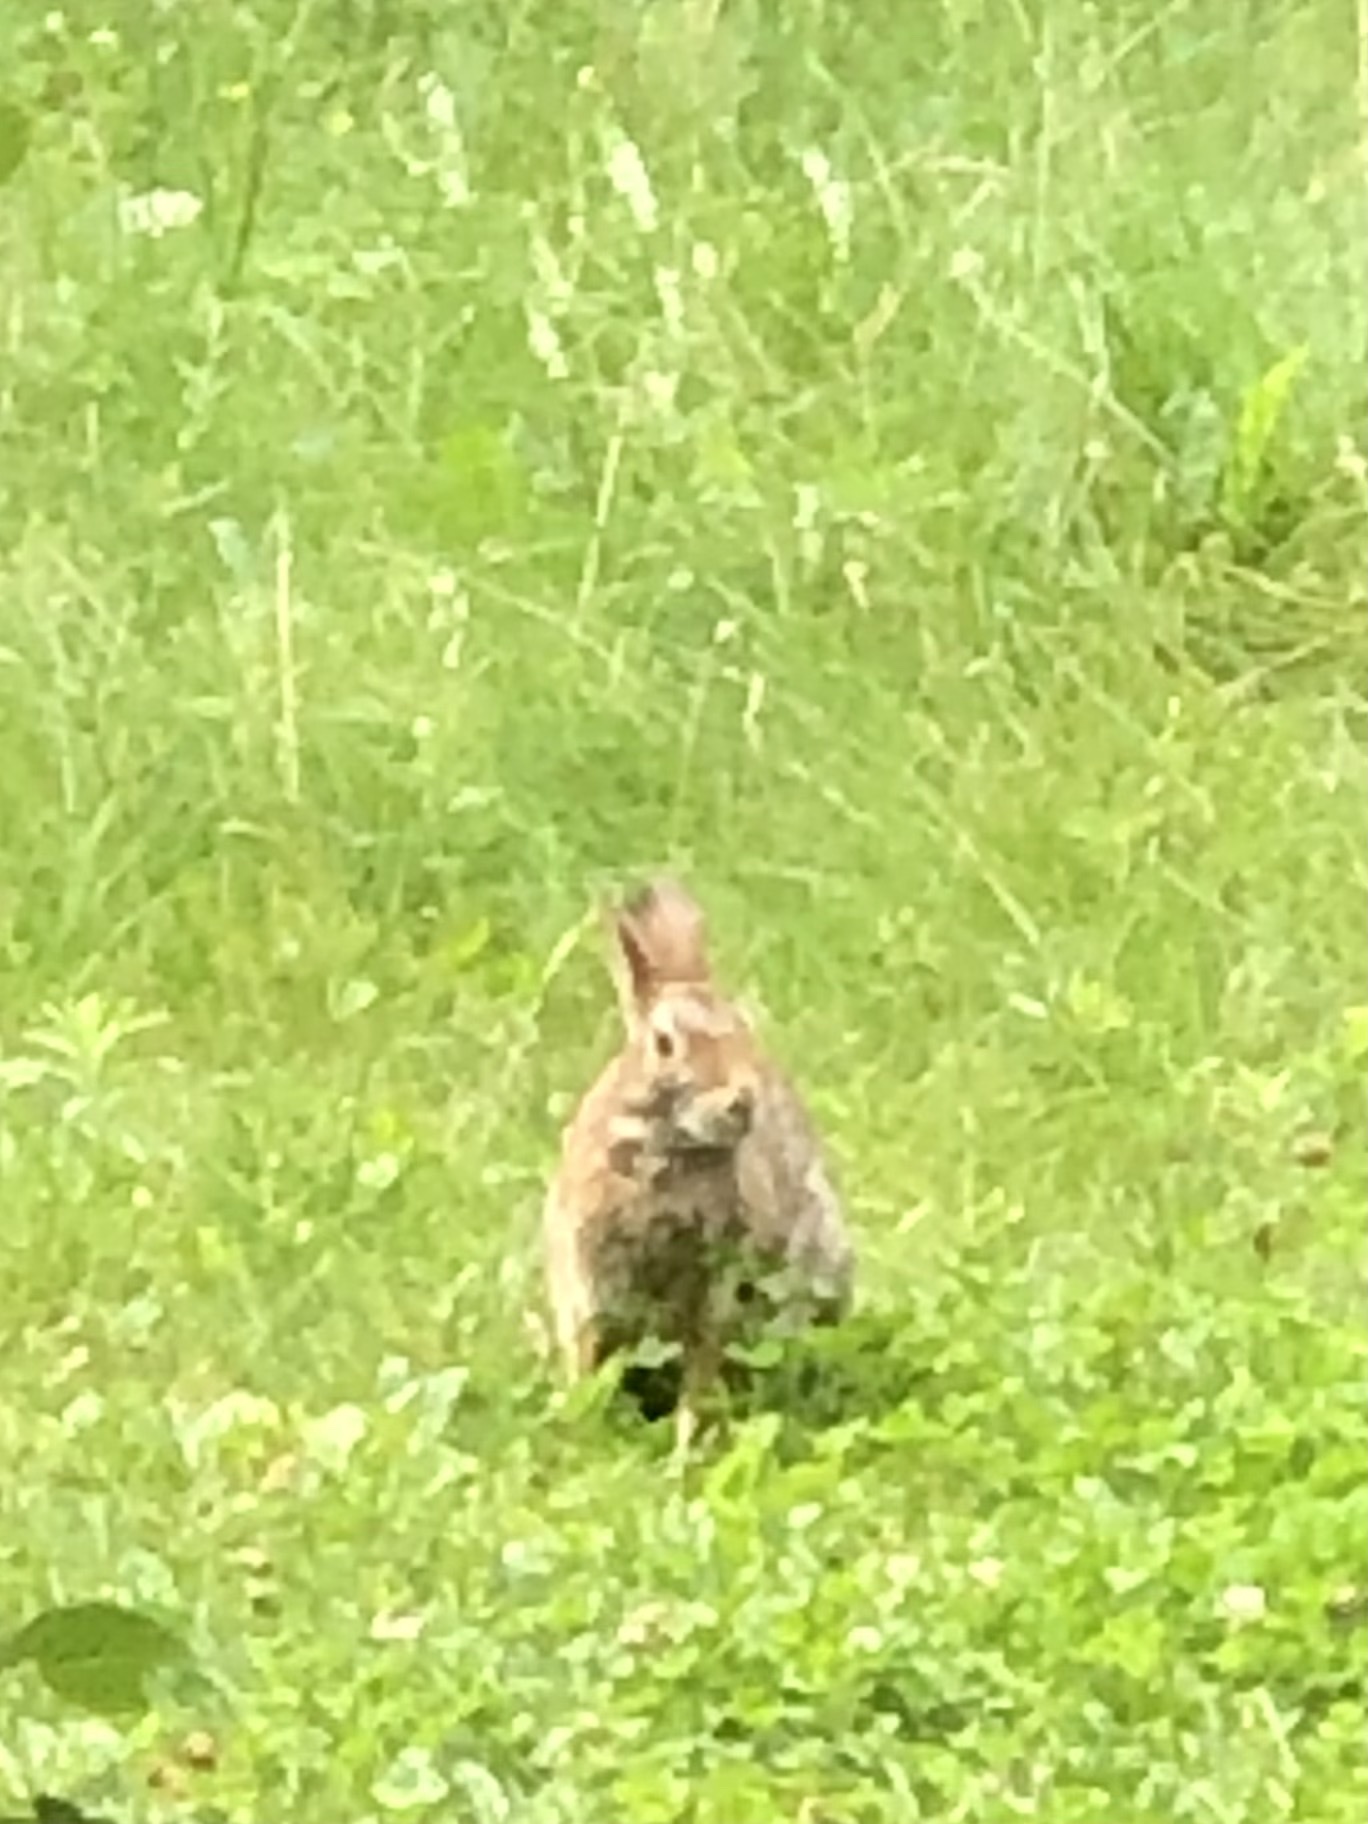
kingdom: Animalia
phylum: Chordata
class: Mammalia
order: Lagomorpha
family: Leporidae
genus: Sylvilagus
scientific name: Sylvilagus floridanus
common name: Eastern cottontail
